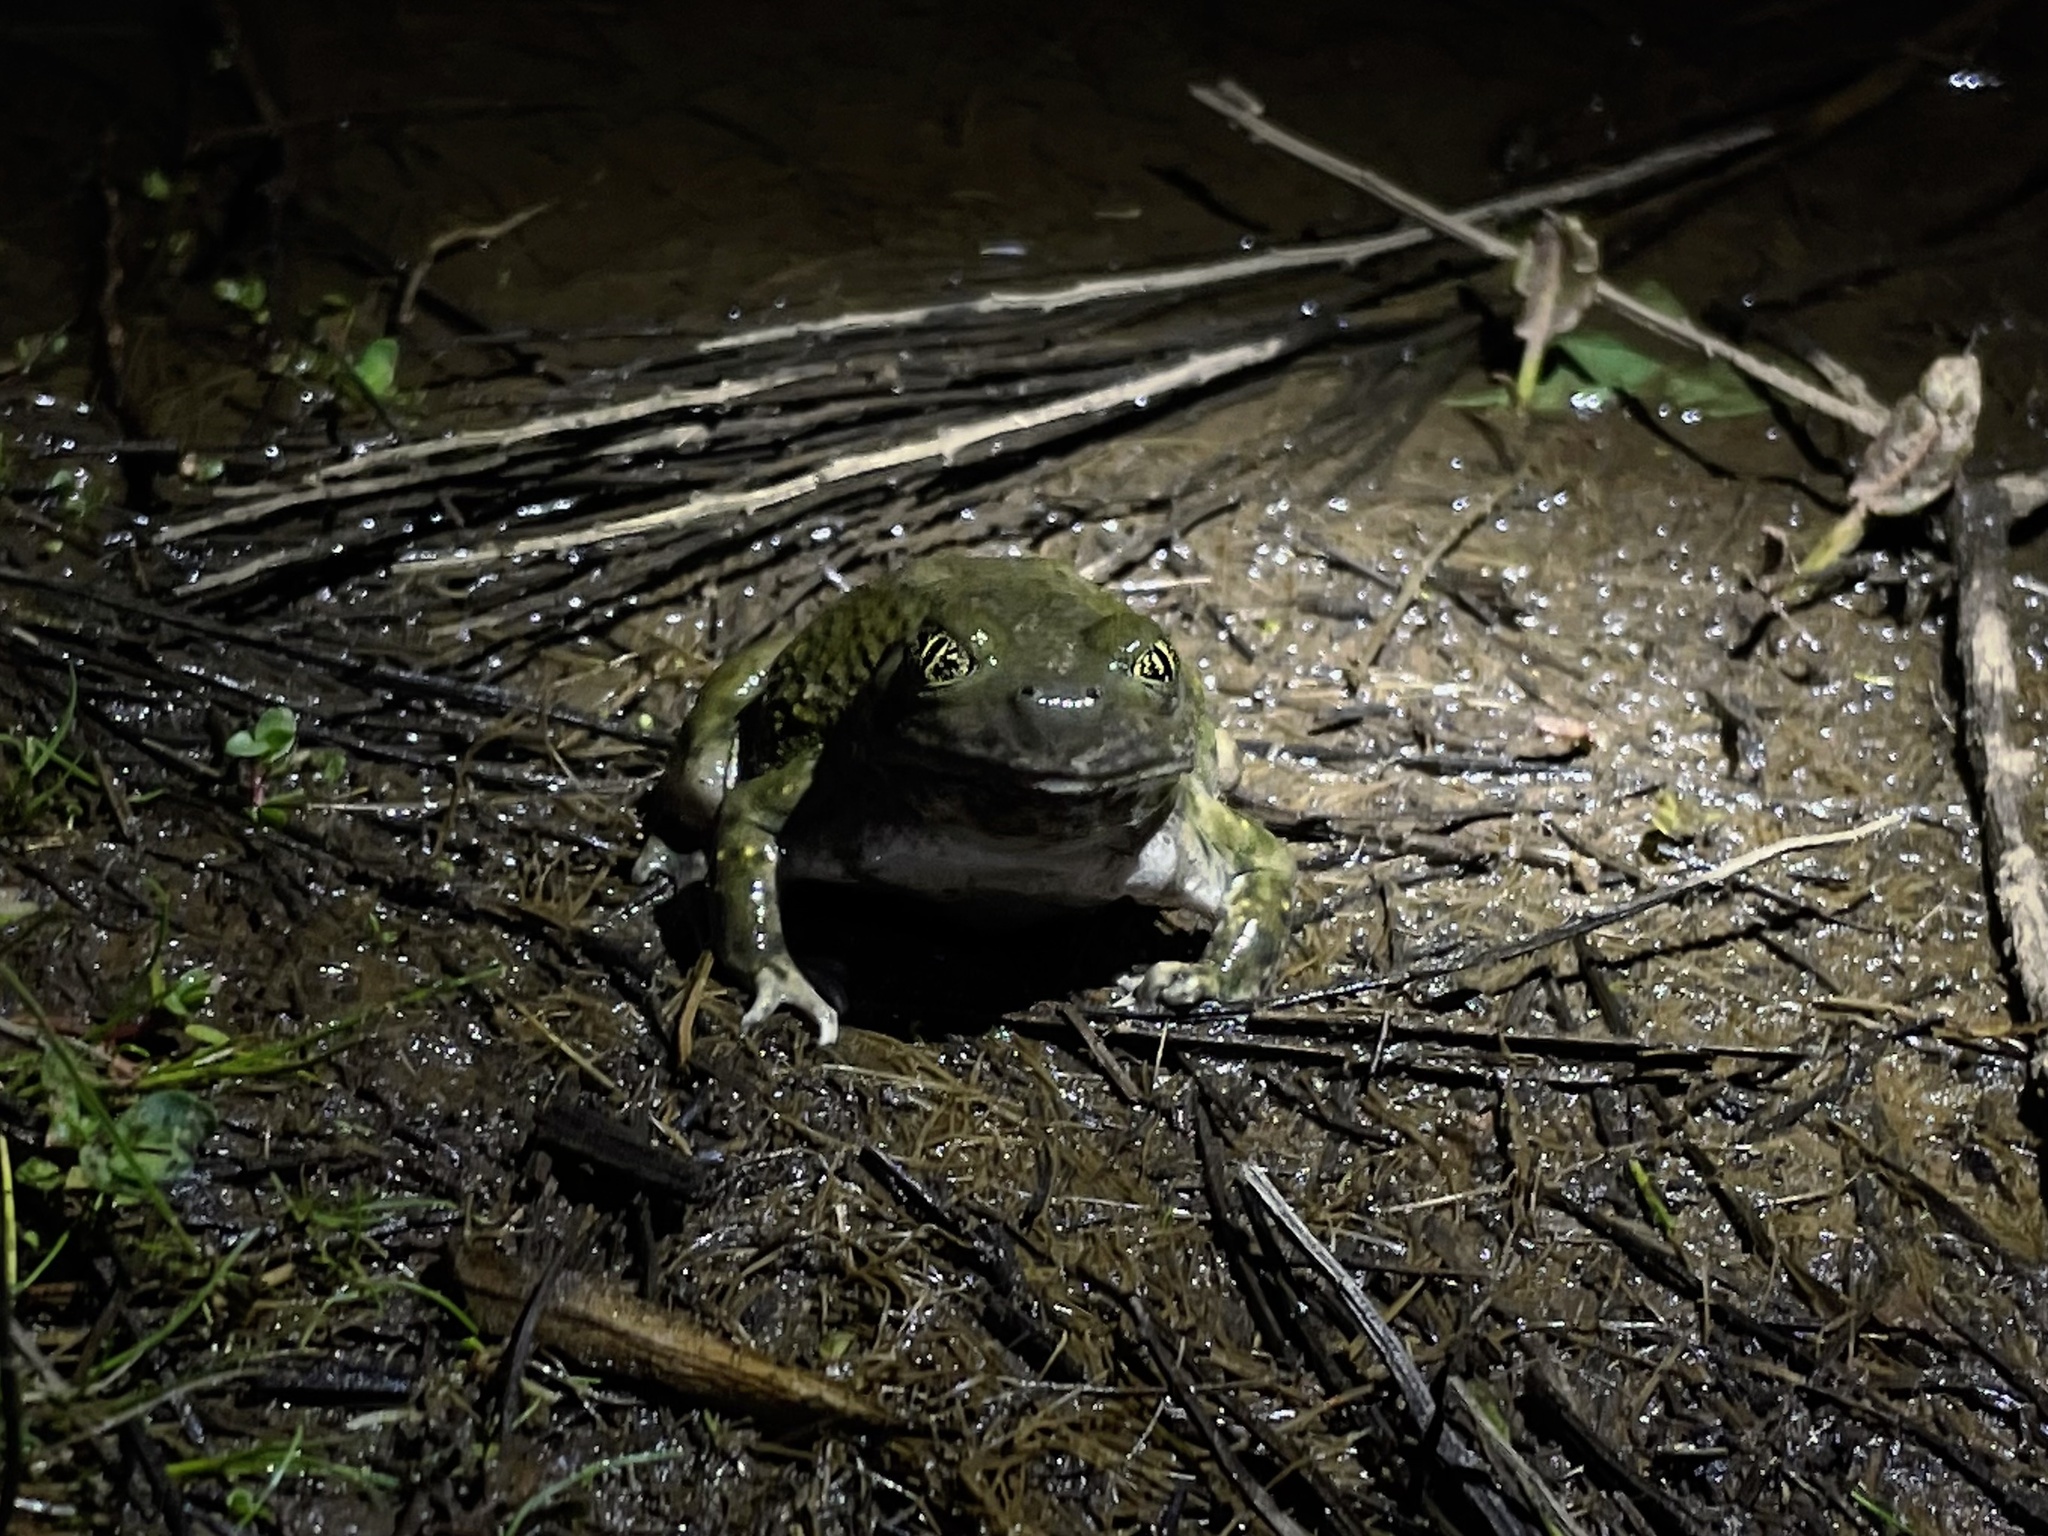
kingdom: Animalia
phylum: Chordata
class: Amphibia
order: Anura
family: Scaphiopodidae
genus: Spea
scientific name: Spea hammondii
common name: Western spadefoot toad
